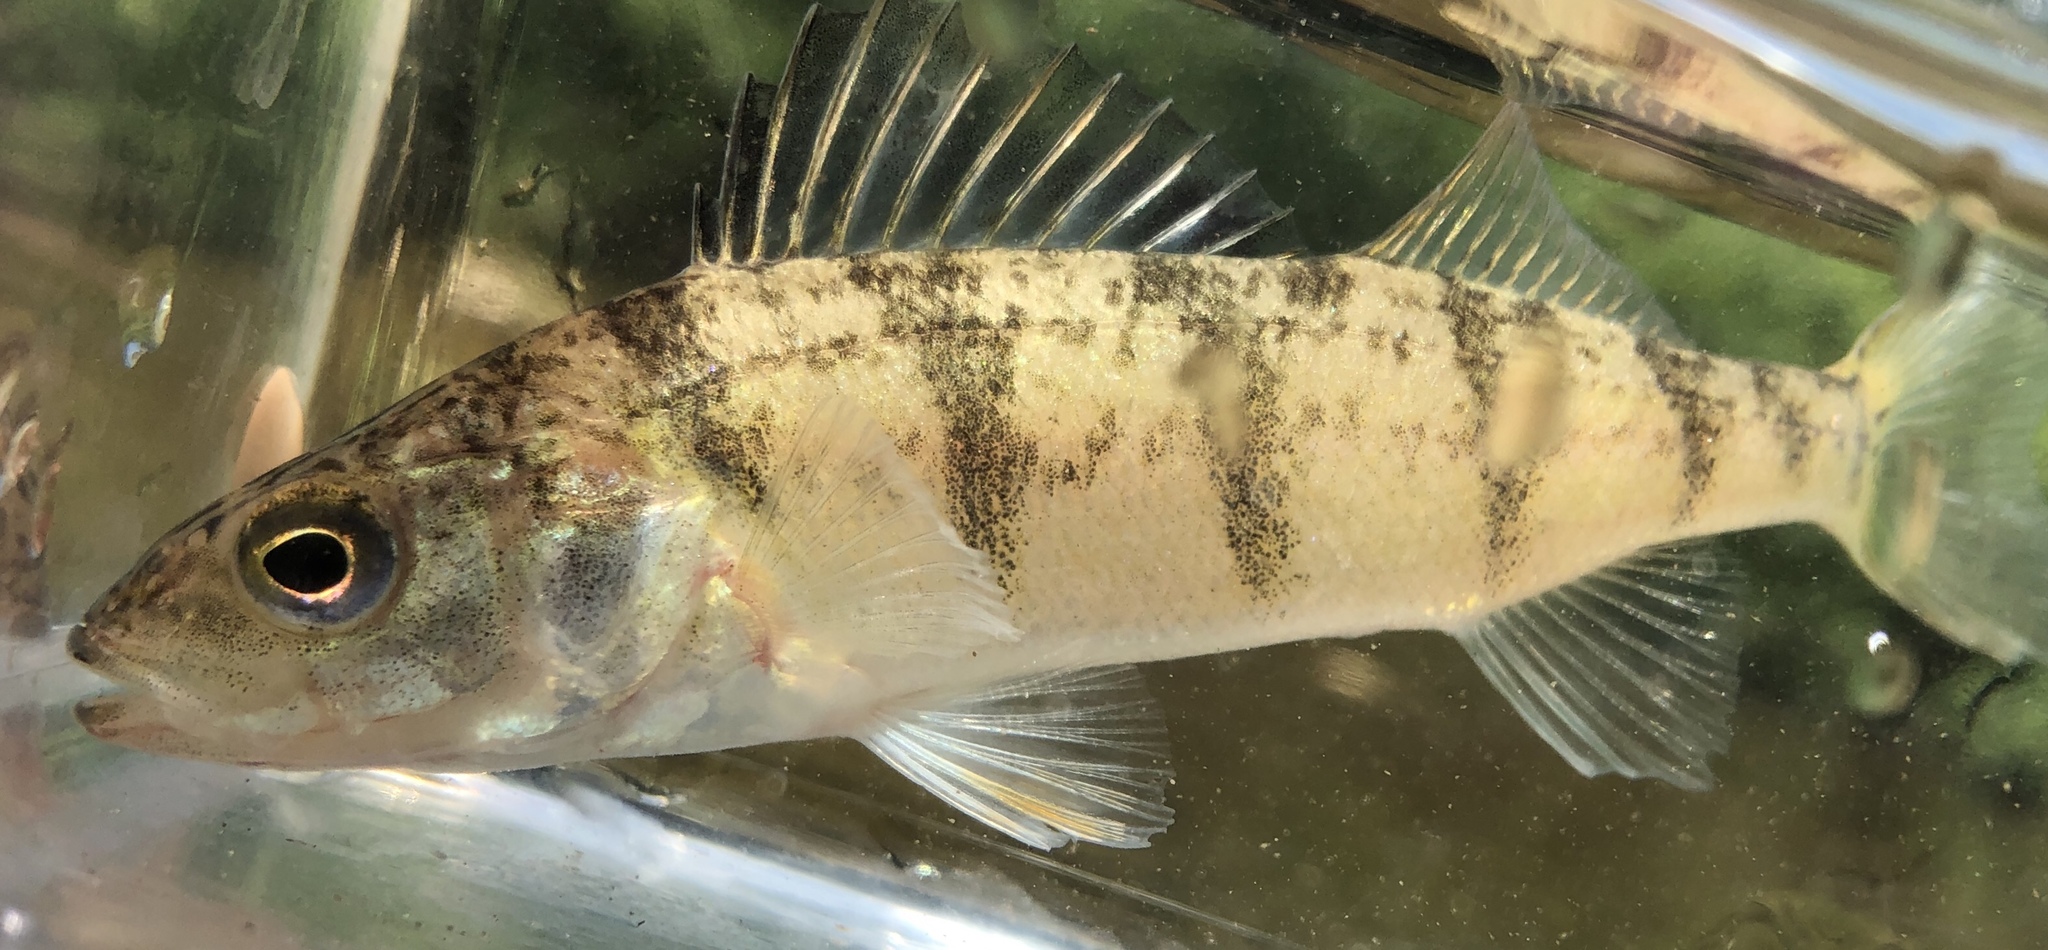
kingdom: Animalia
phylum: Chordata
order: Perciformes
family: Percidae
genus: Perca
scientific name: Perca flavescens
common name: Yellow perch
